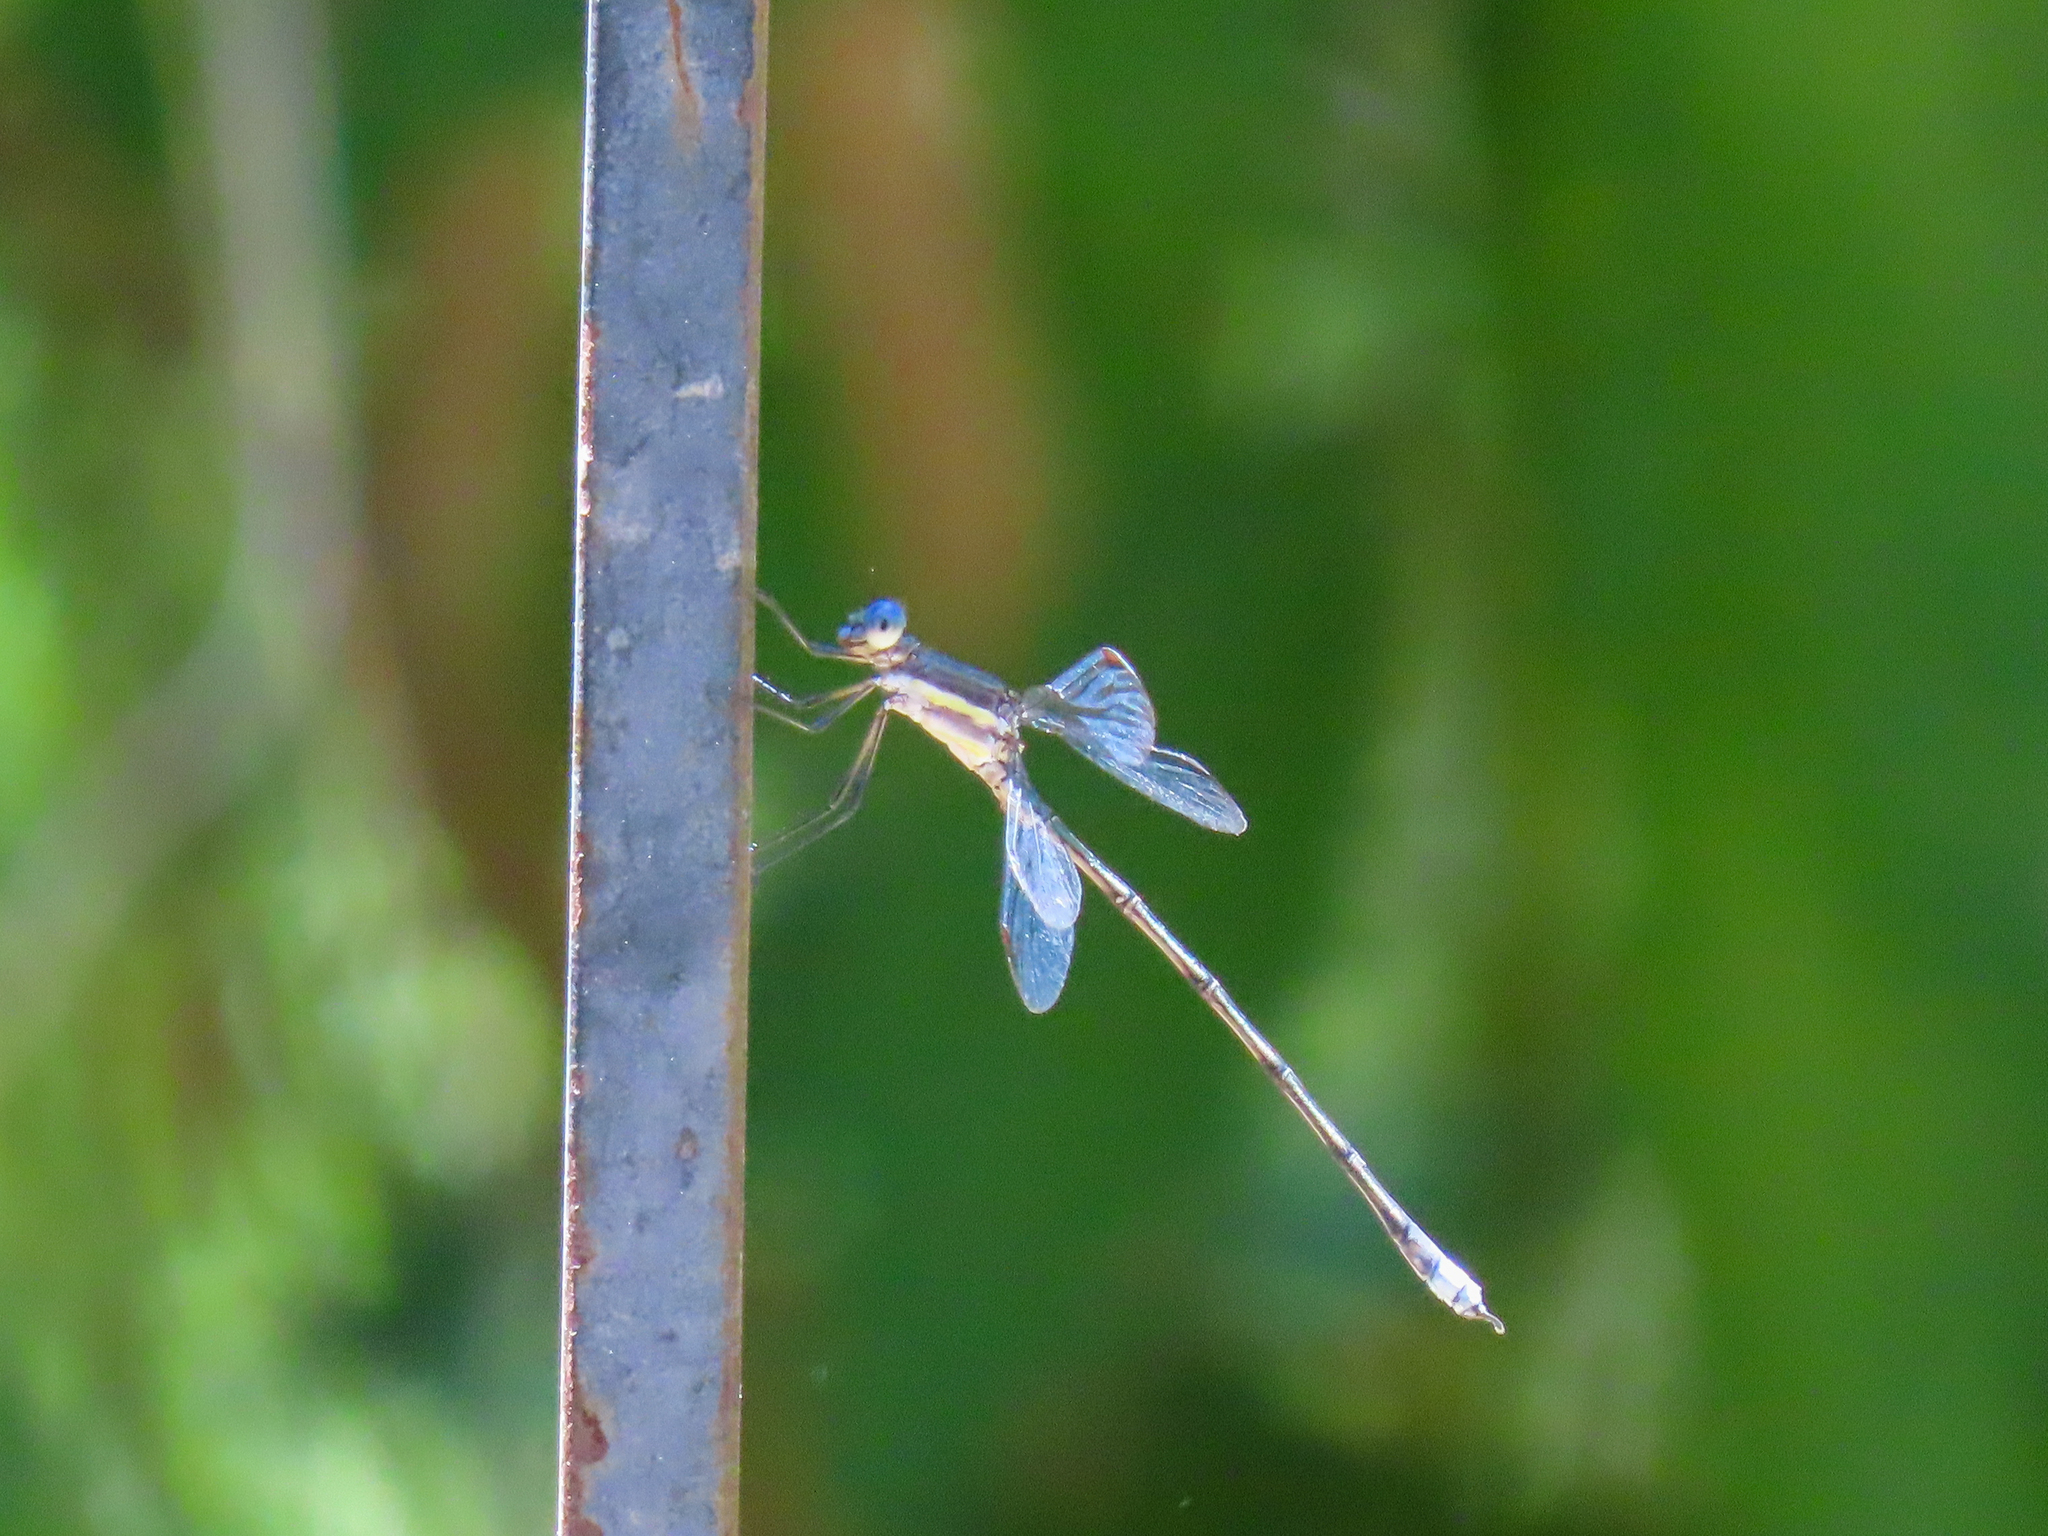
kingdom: Animalia
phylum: Arthropoda
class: Insecta
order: Odonata
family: Lestidae
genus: Archilestes
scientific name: Archilestes grandis
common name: Great spreadwing
